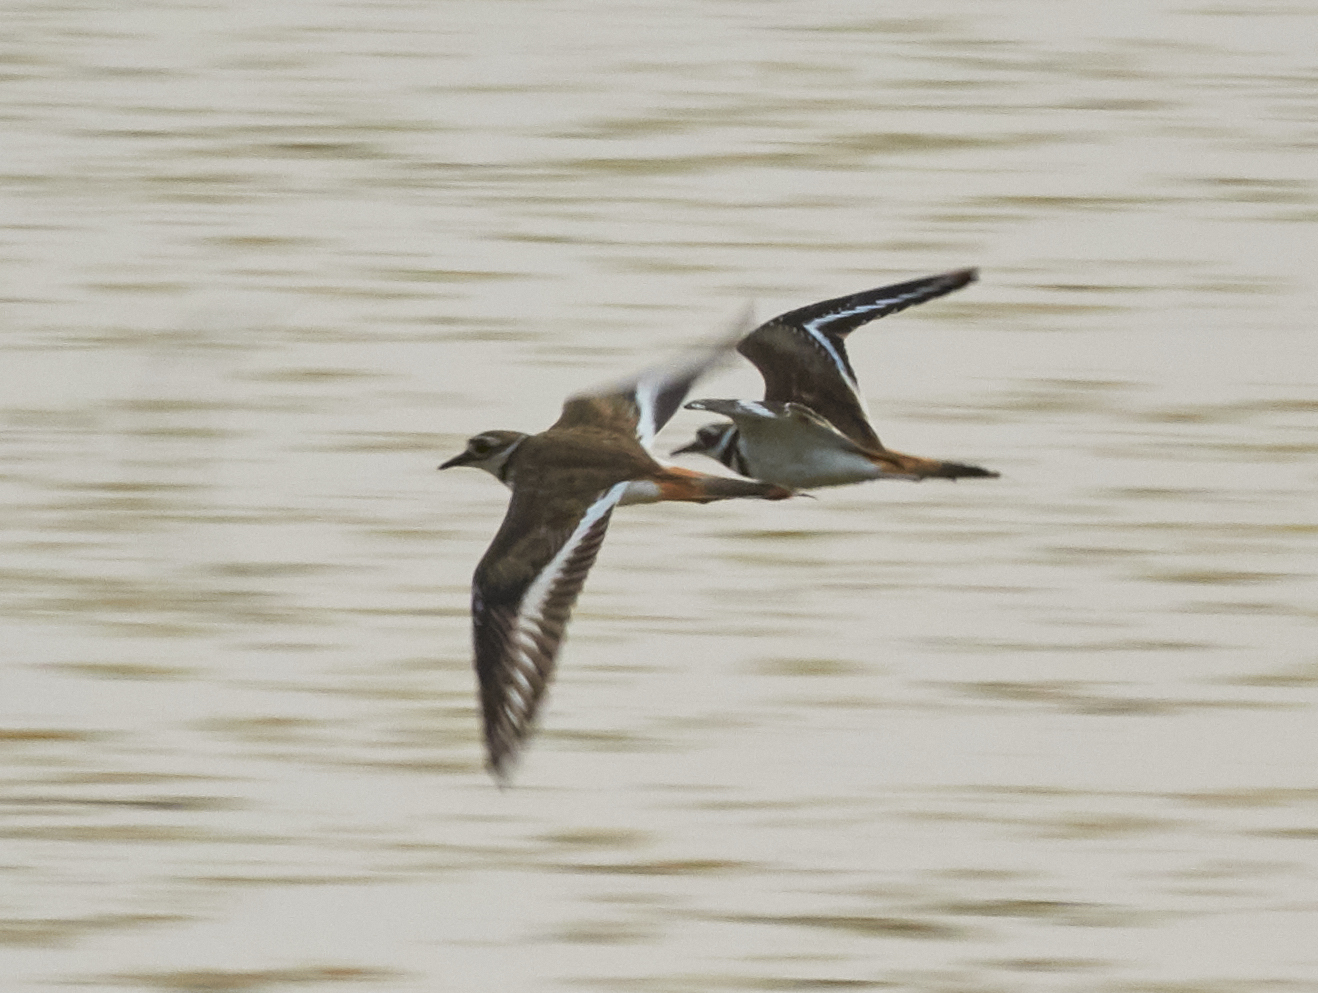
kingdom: Animalia
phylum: Chordata
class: Aves
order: Charadriiformes
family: Charadriidae
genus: Charadrius
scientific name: Charadrius vociferus
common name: Killdeer
